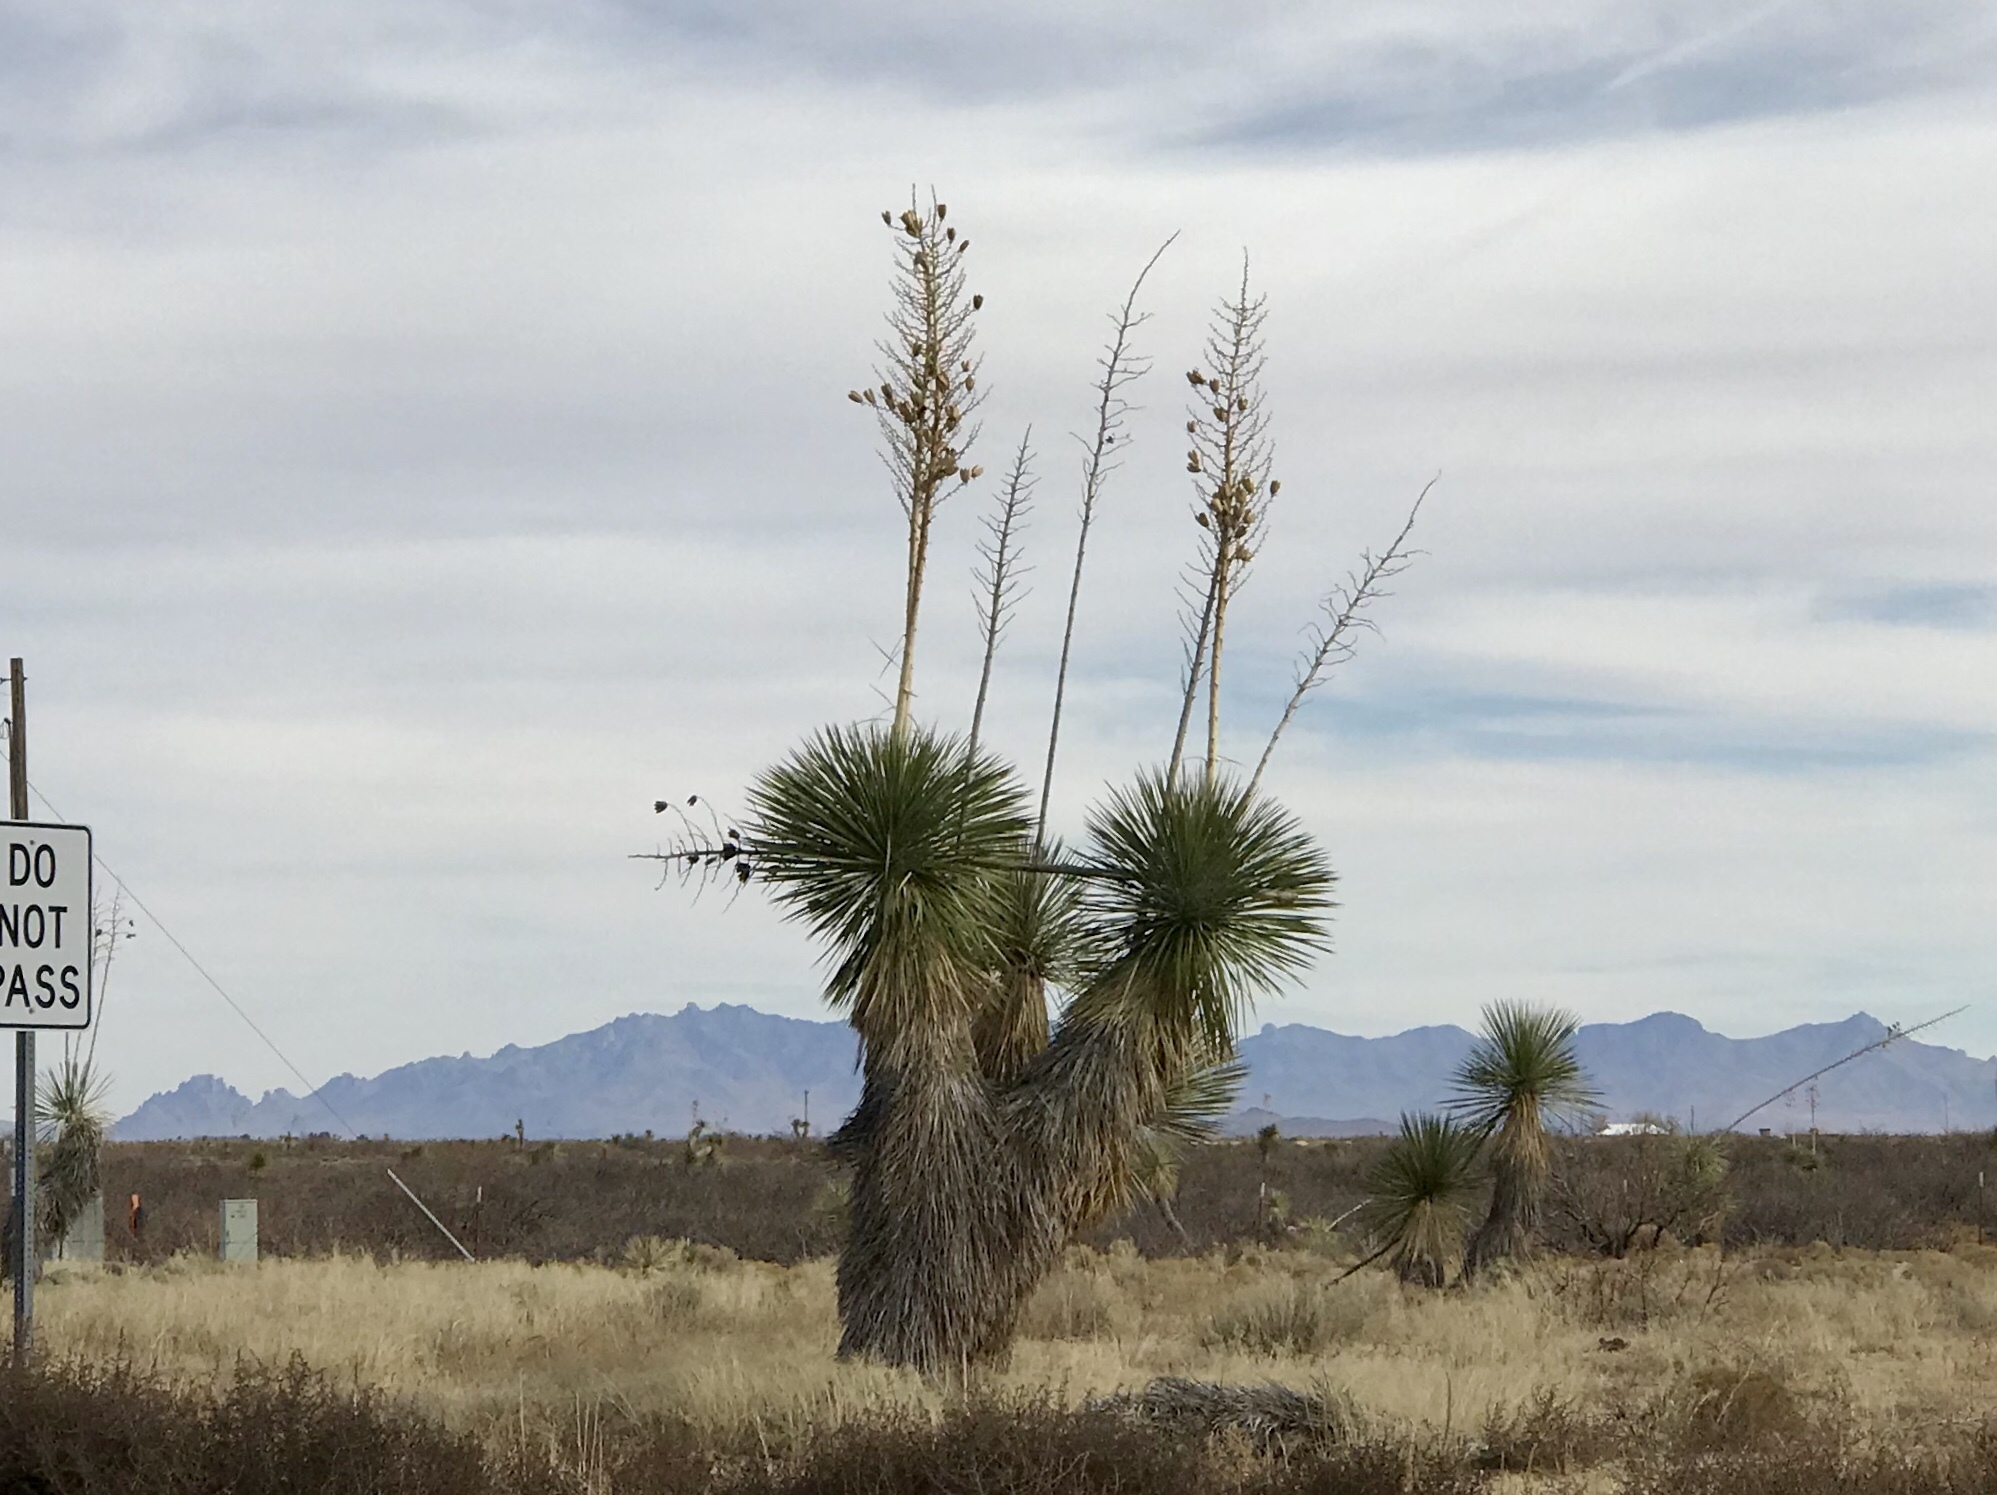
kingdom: Plantae
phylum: Tracheophyta
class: Liliopsida
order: Asparagales
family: Asparagaceae
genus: Yucca
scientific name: Yucca elata
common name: Palmella
